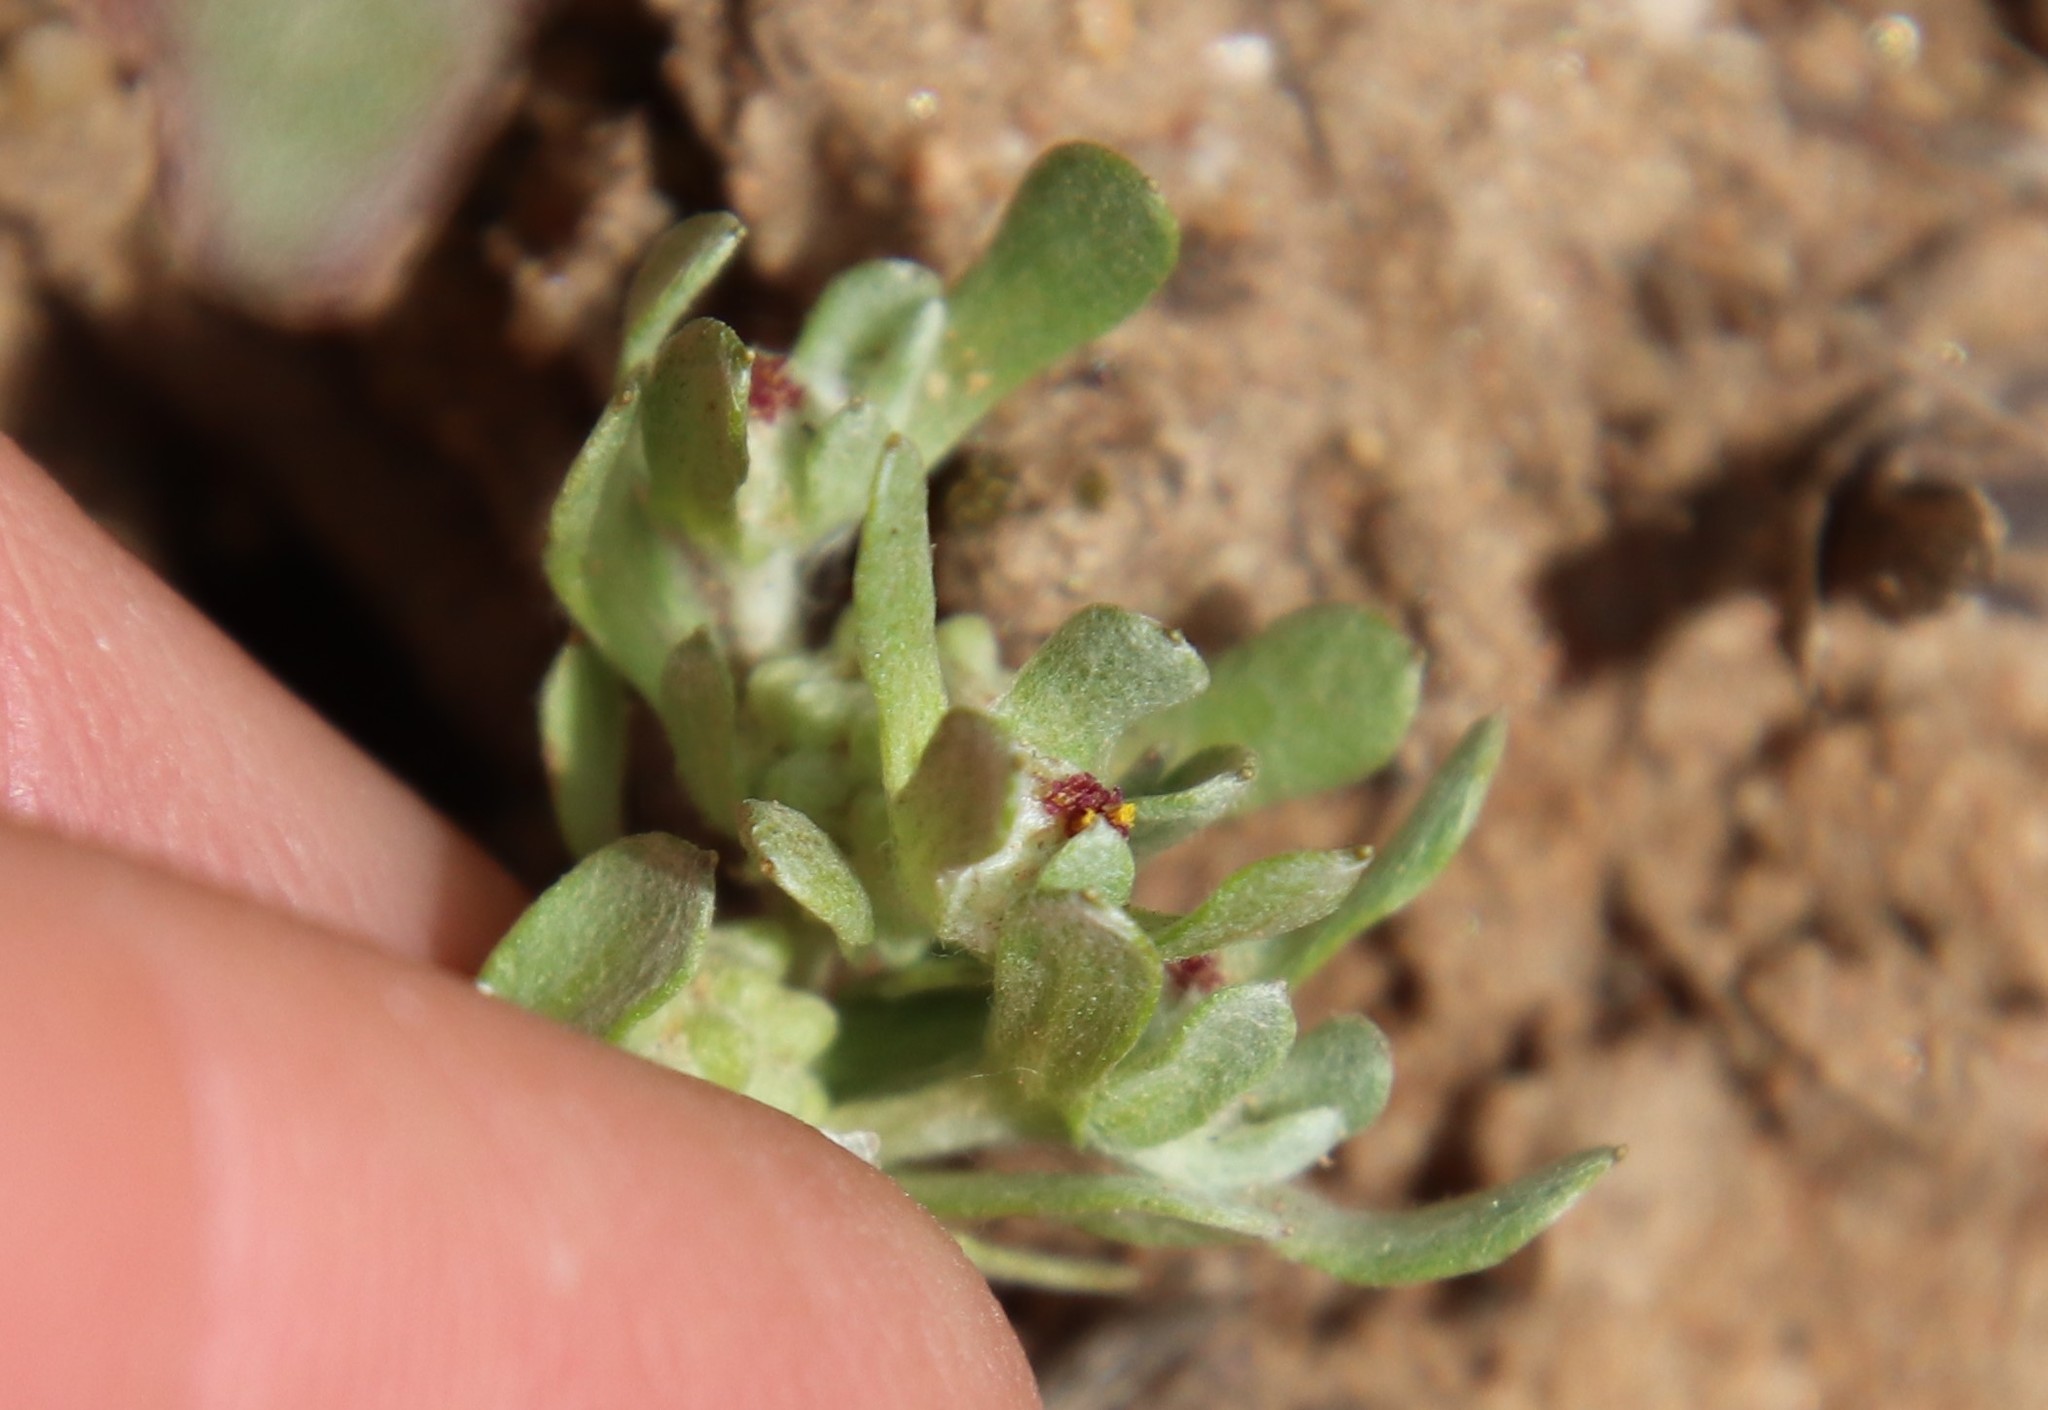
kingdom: Plantae
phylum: Tracheophyta
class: Magnoliopsida
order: Asterales
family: Asteraceae
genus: Psilocarphus
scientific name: Psilocarphus tenellus
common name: Slender woolly-marbles
